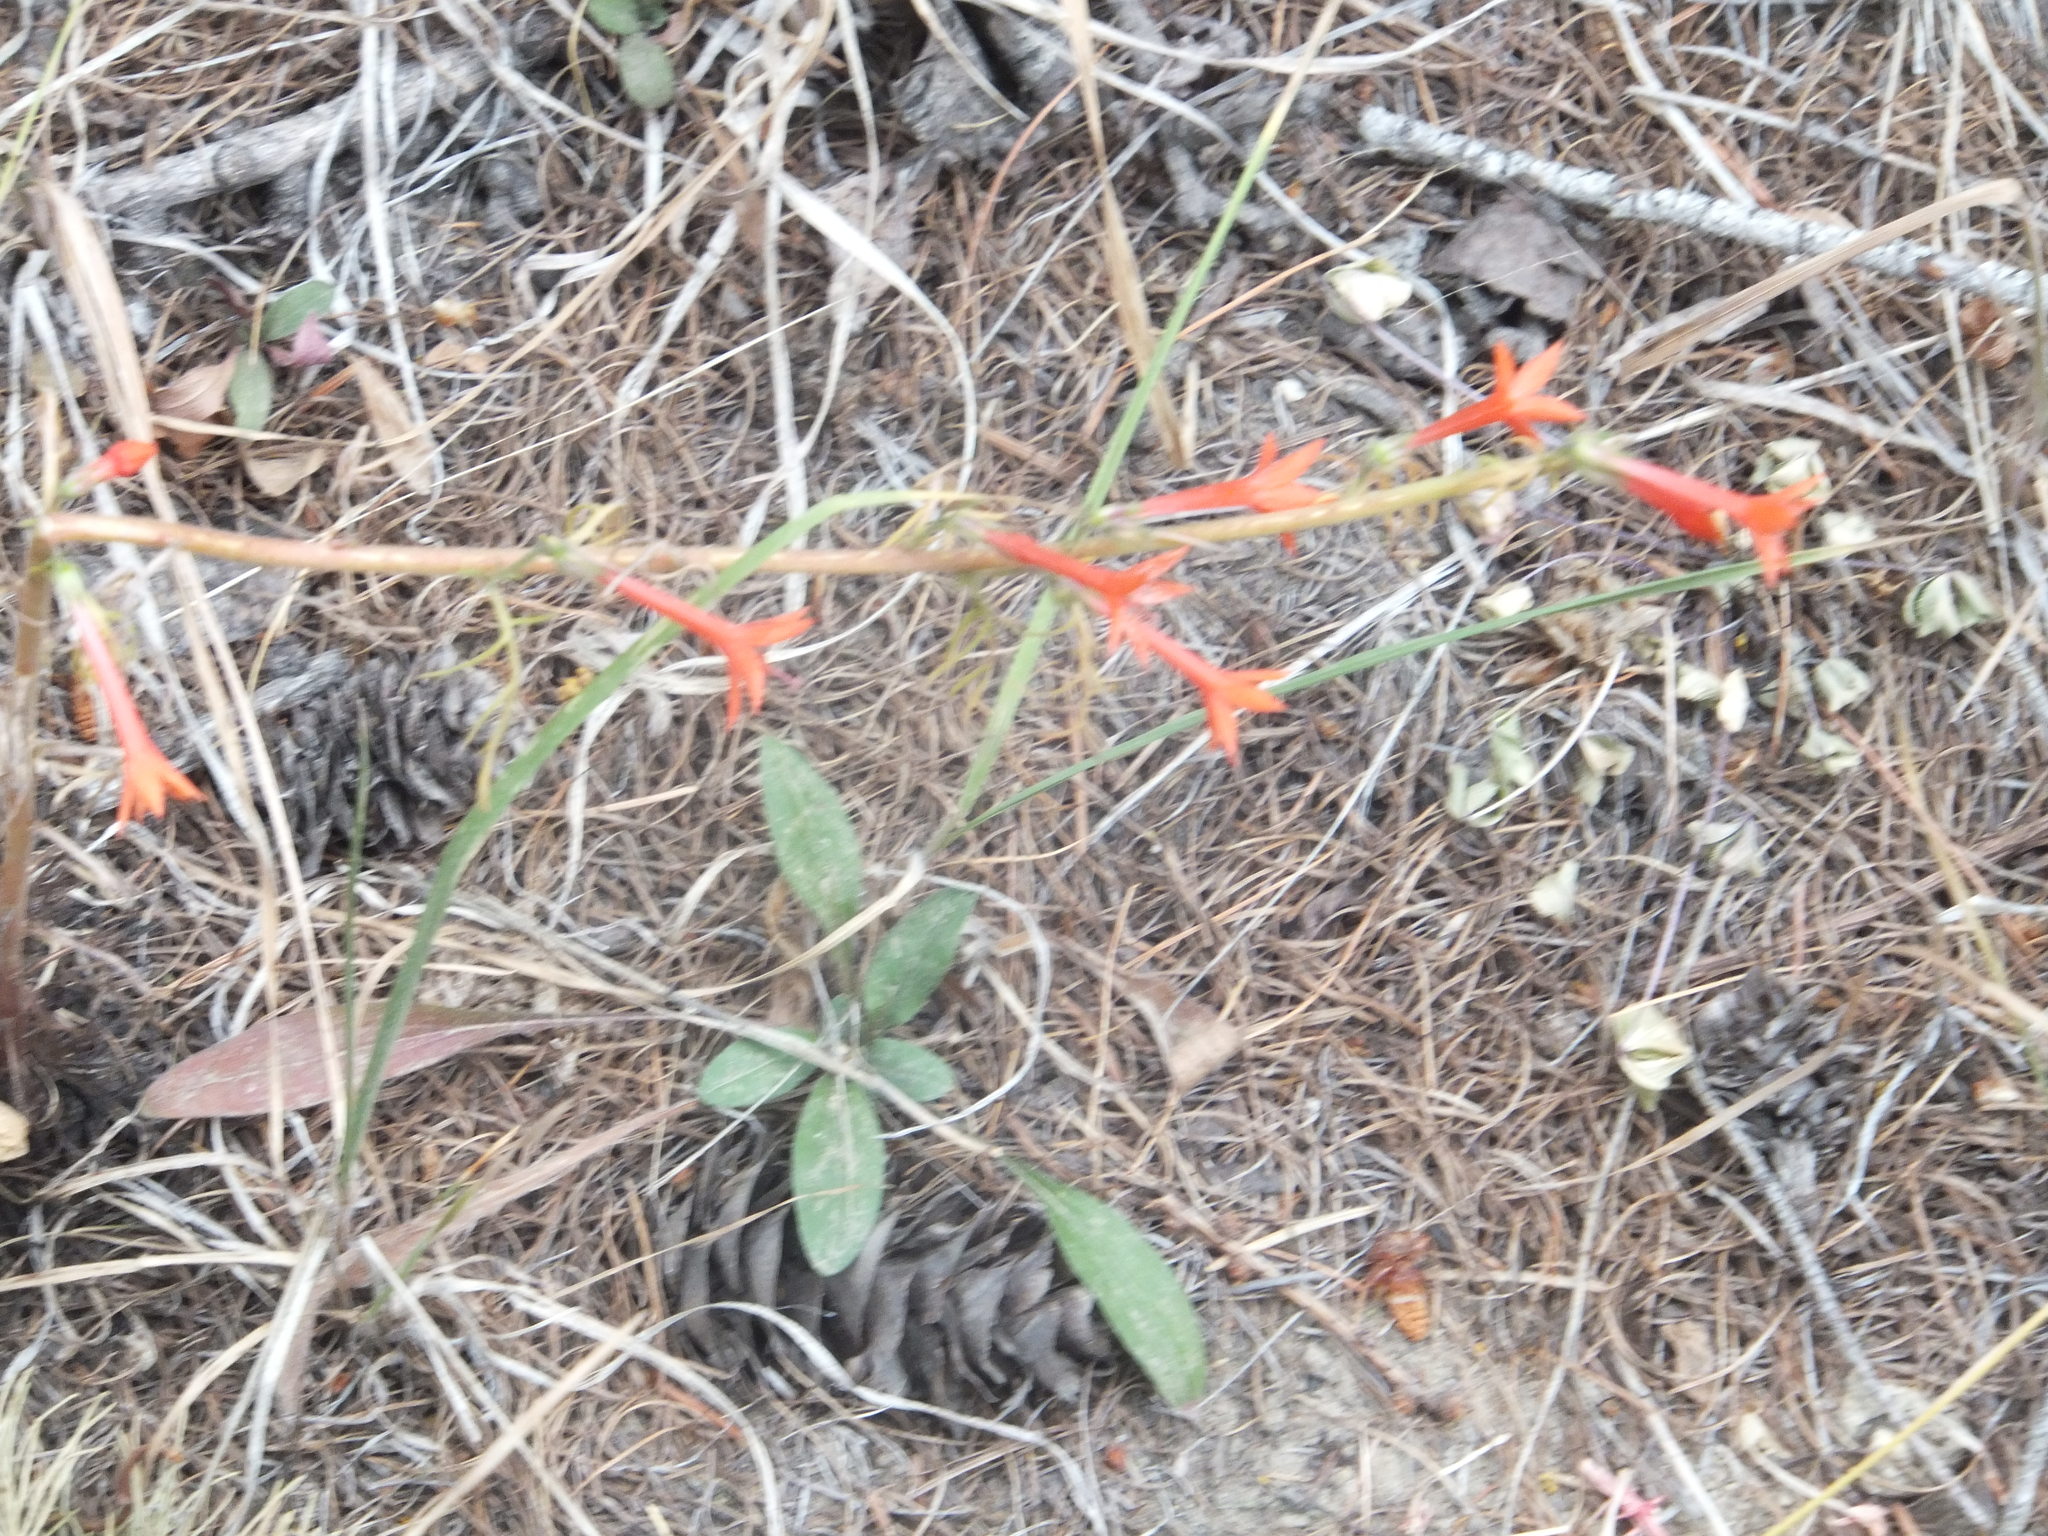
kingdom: Plantae
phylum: Tracheophyta
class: Magnoliopsida
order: Ericales
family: Polemoniaceae
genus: Ipomopsis
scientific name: Ipomopsis aggregata
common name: Scarlet gilia
